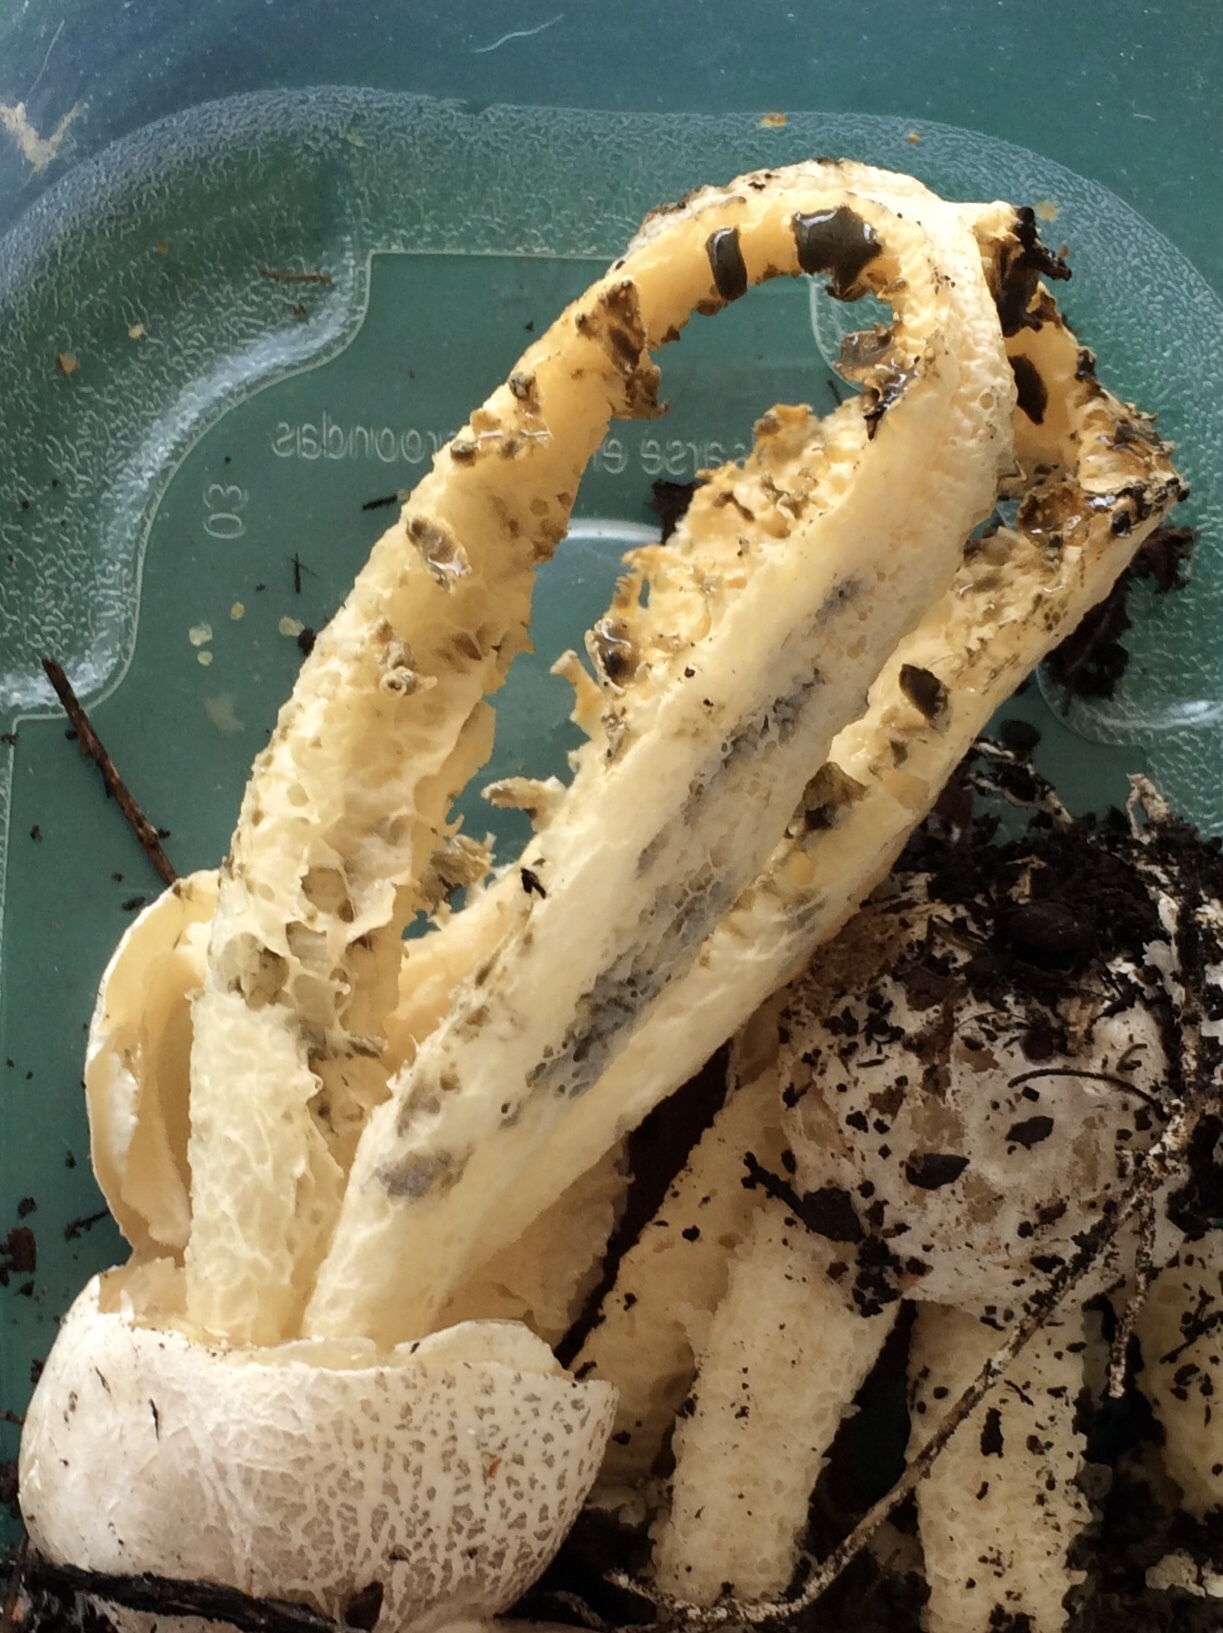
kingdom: Fungi
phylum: Basidiomycota
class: Agaricomycetes
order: Phallales
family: Phallaceae
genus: Blumenavia
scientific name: Blumenavia rhacodes
